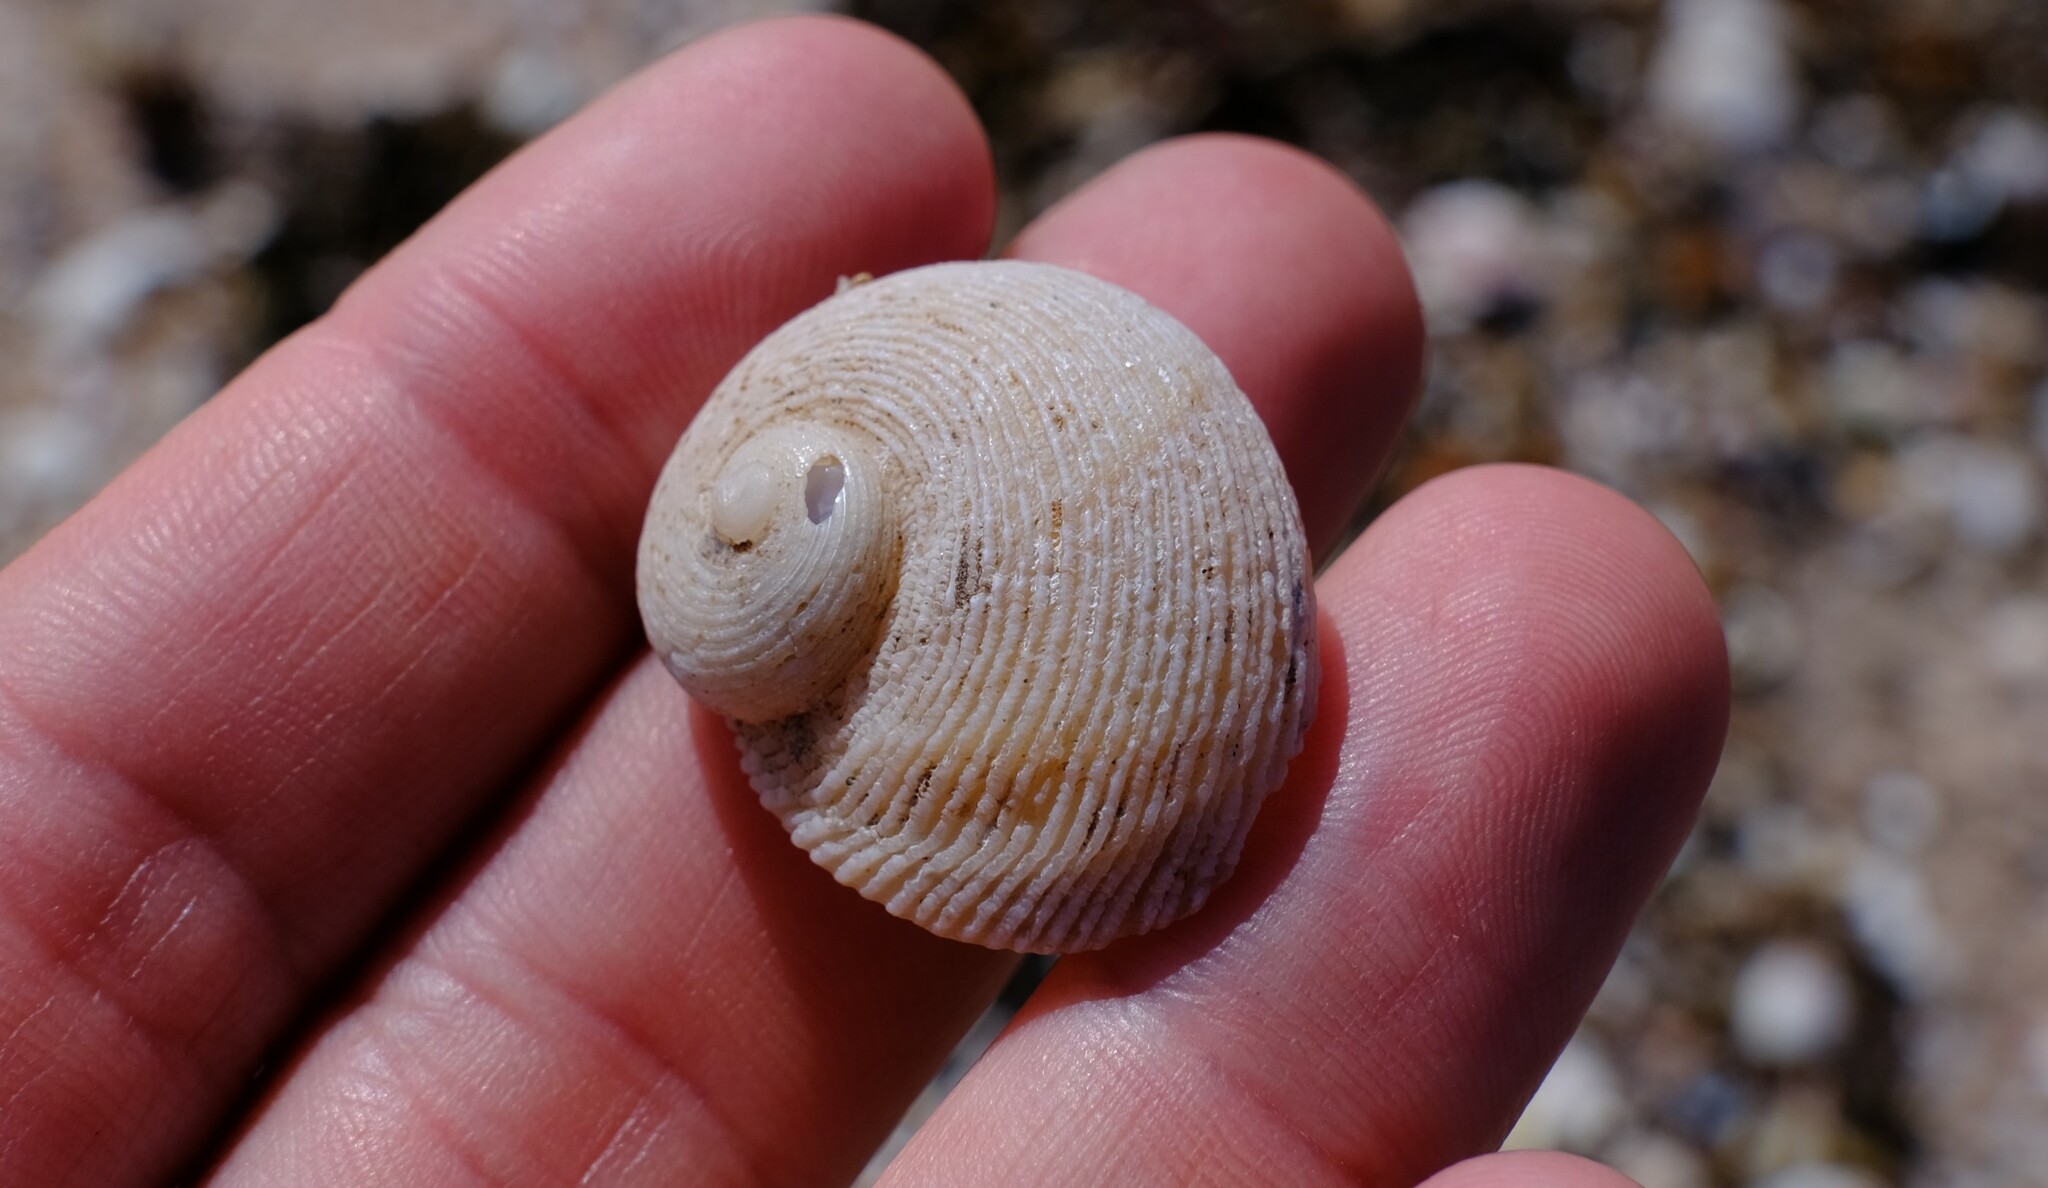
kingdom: Animalia
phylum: Mollusca
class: Gastropoda
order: Seguenziida
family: Chilodontaidae
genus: Granata
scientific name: Granata imbricata
